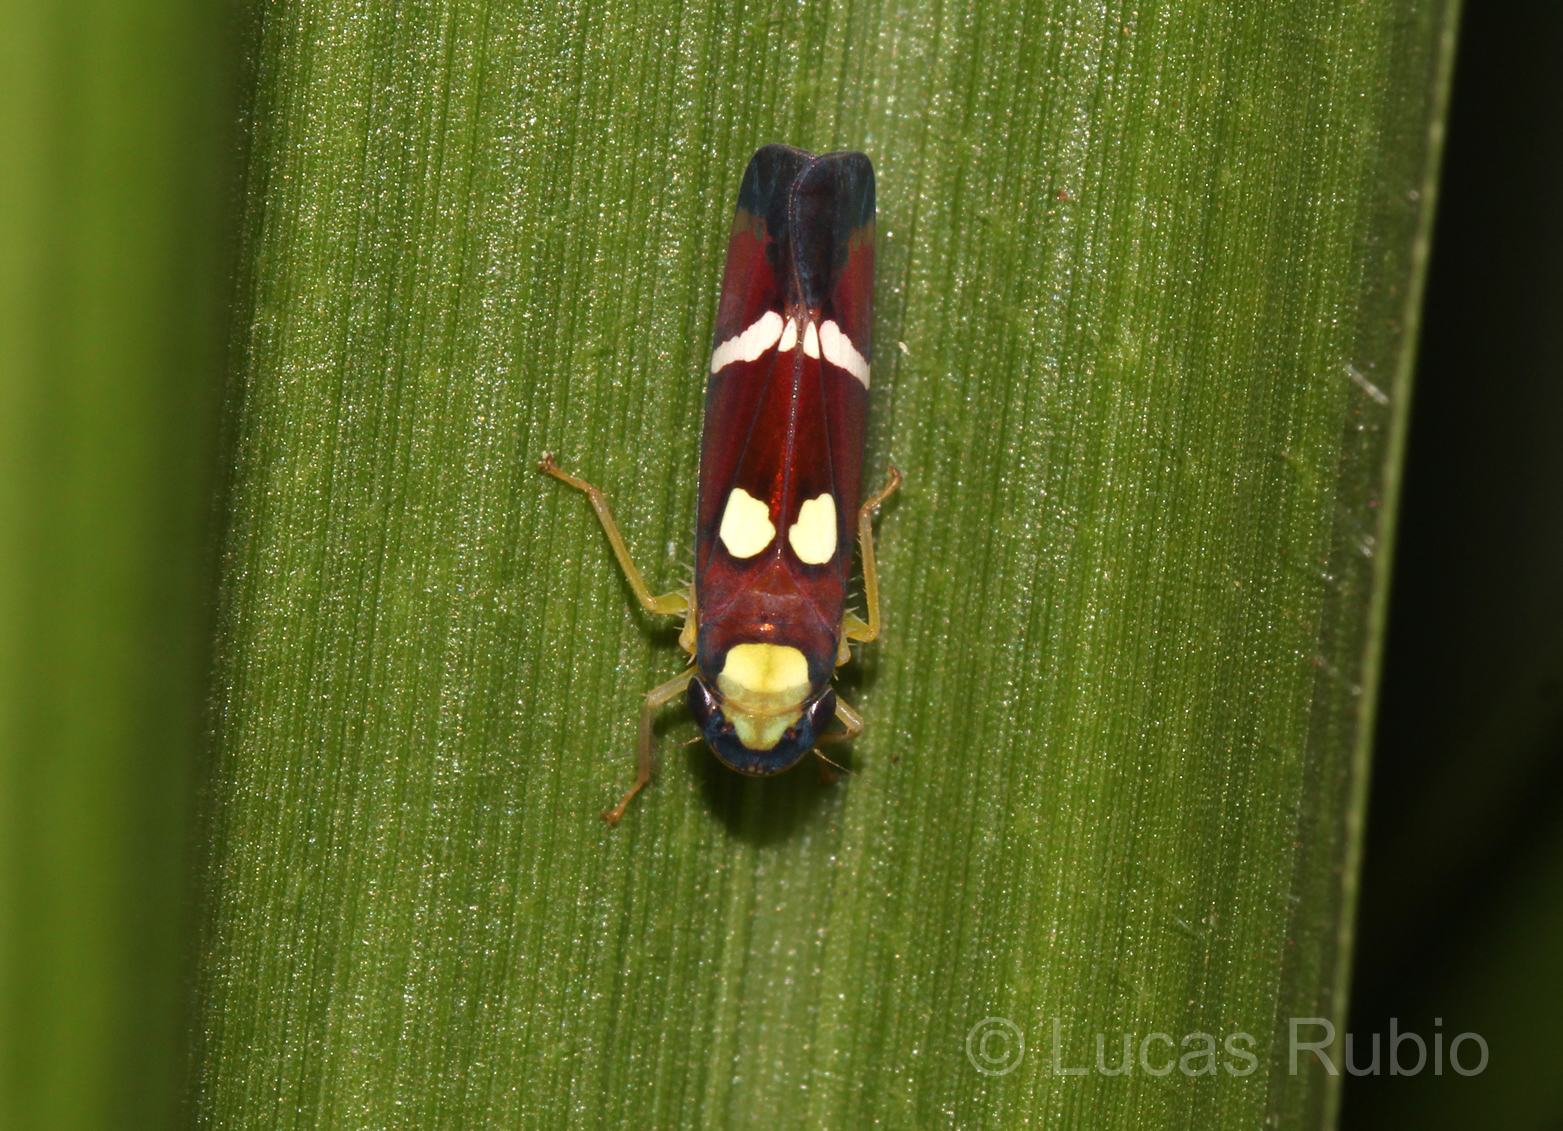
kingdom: Animalia
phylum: Arthropoda
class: Insecta
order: Hemiptera
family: Cicadellidae
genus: Erythrogonia
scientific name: Erythrogonia odonsera
